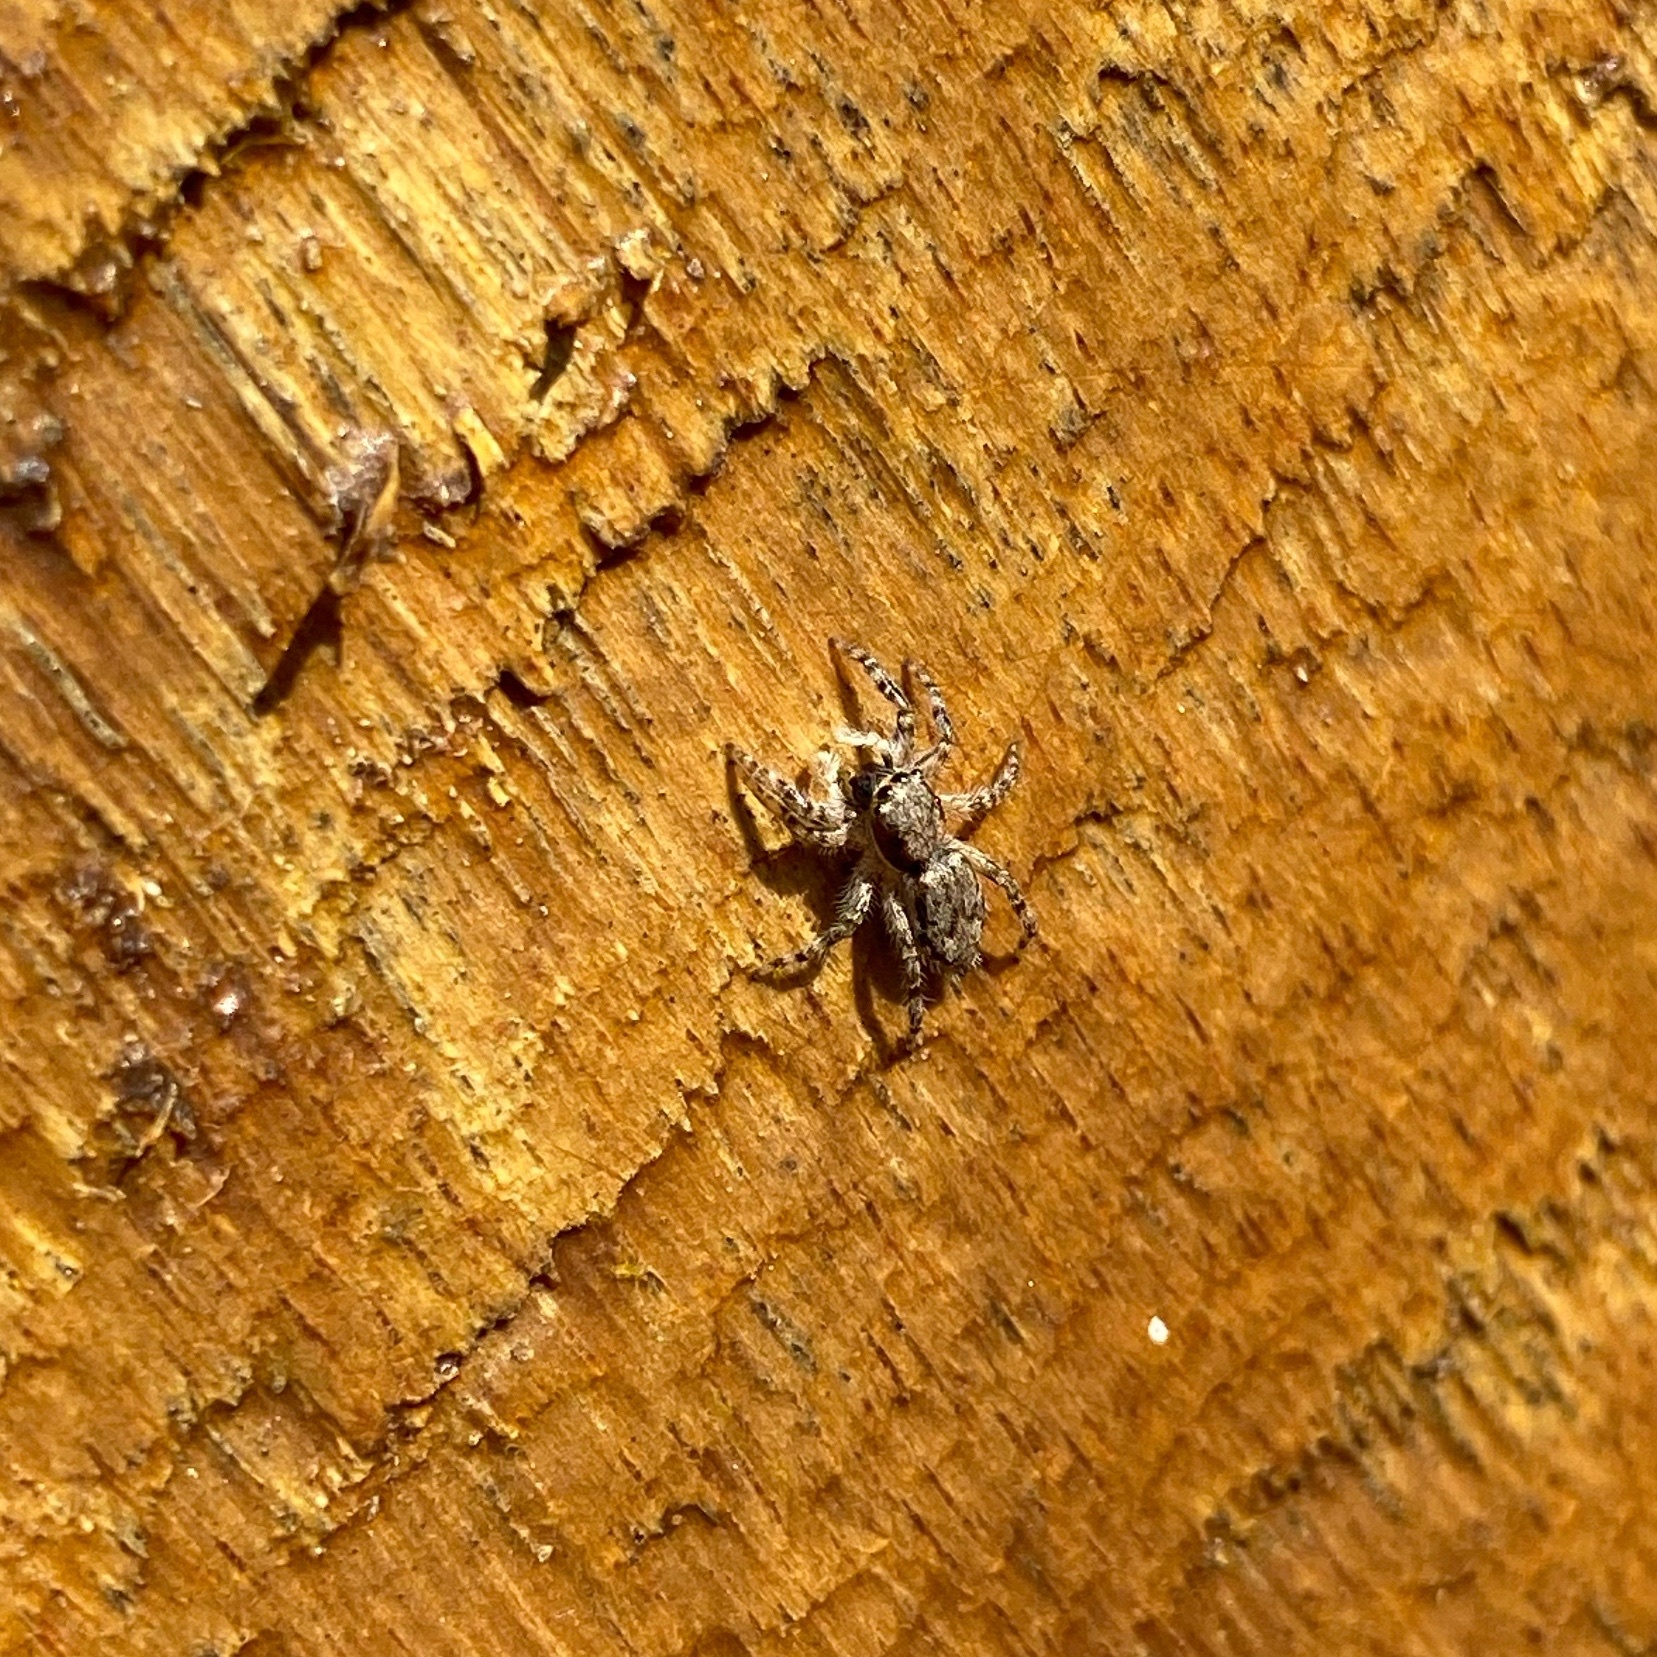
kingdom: Animalia
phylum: Arthropoda
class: Arachnida
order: Araneae
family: Salticidae
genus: Menemerus
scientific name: Menemerus bivittatus
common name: Gray wall jumper
